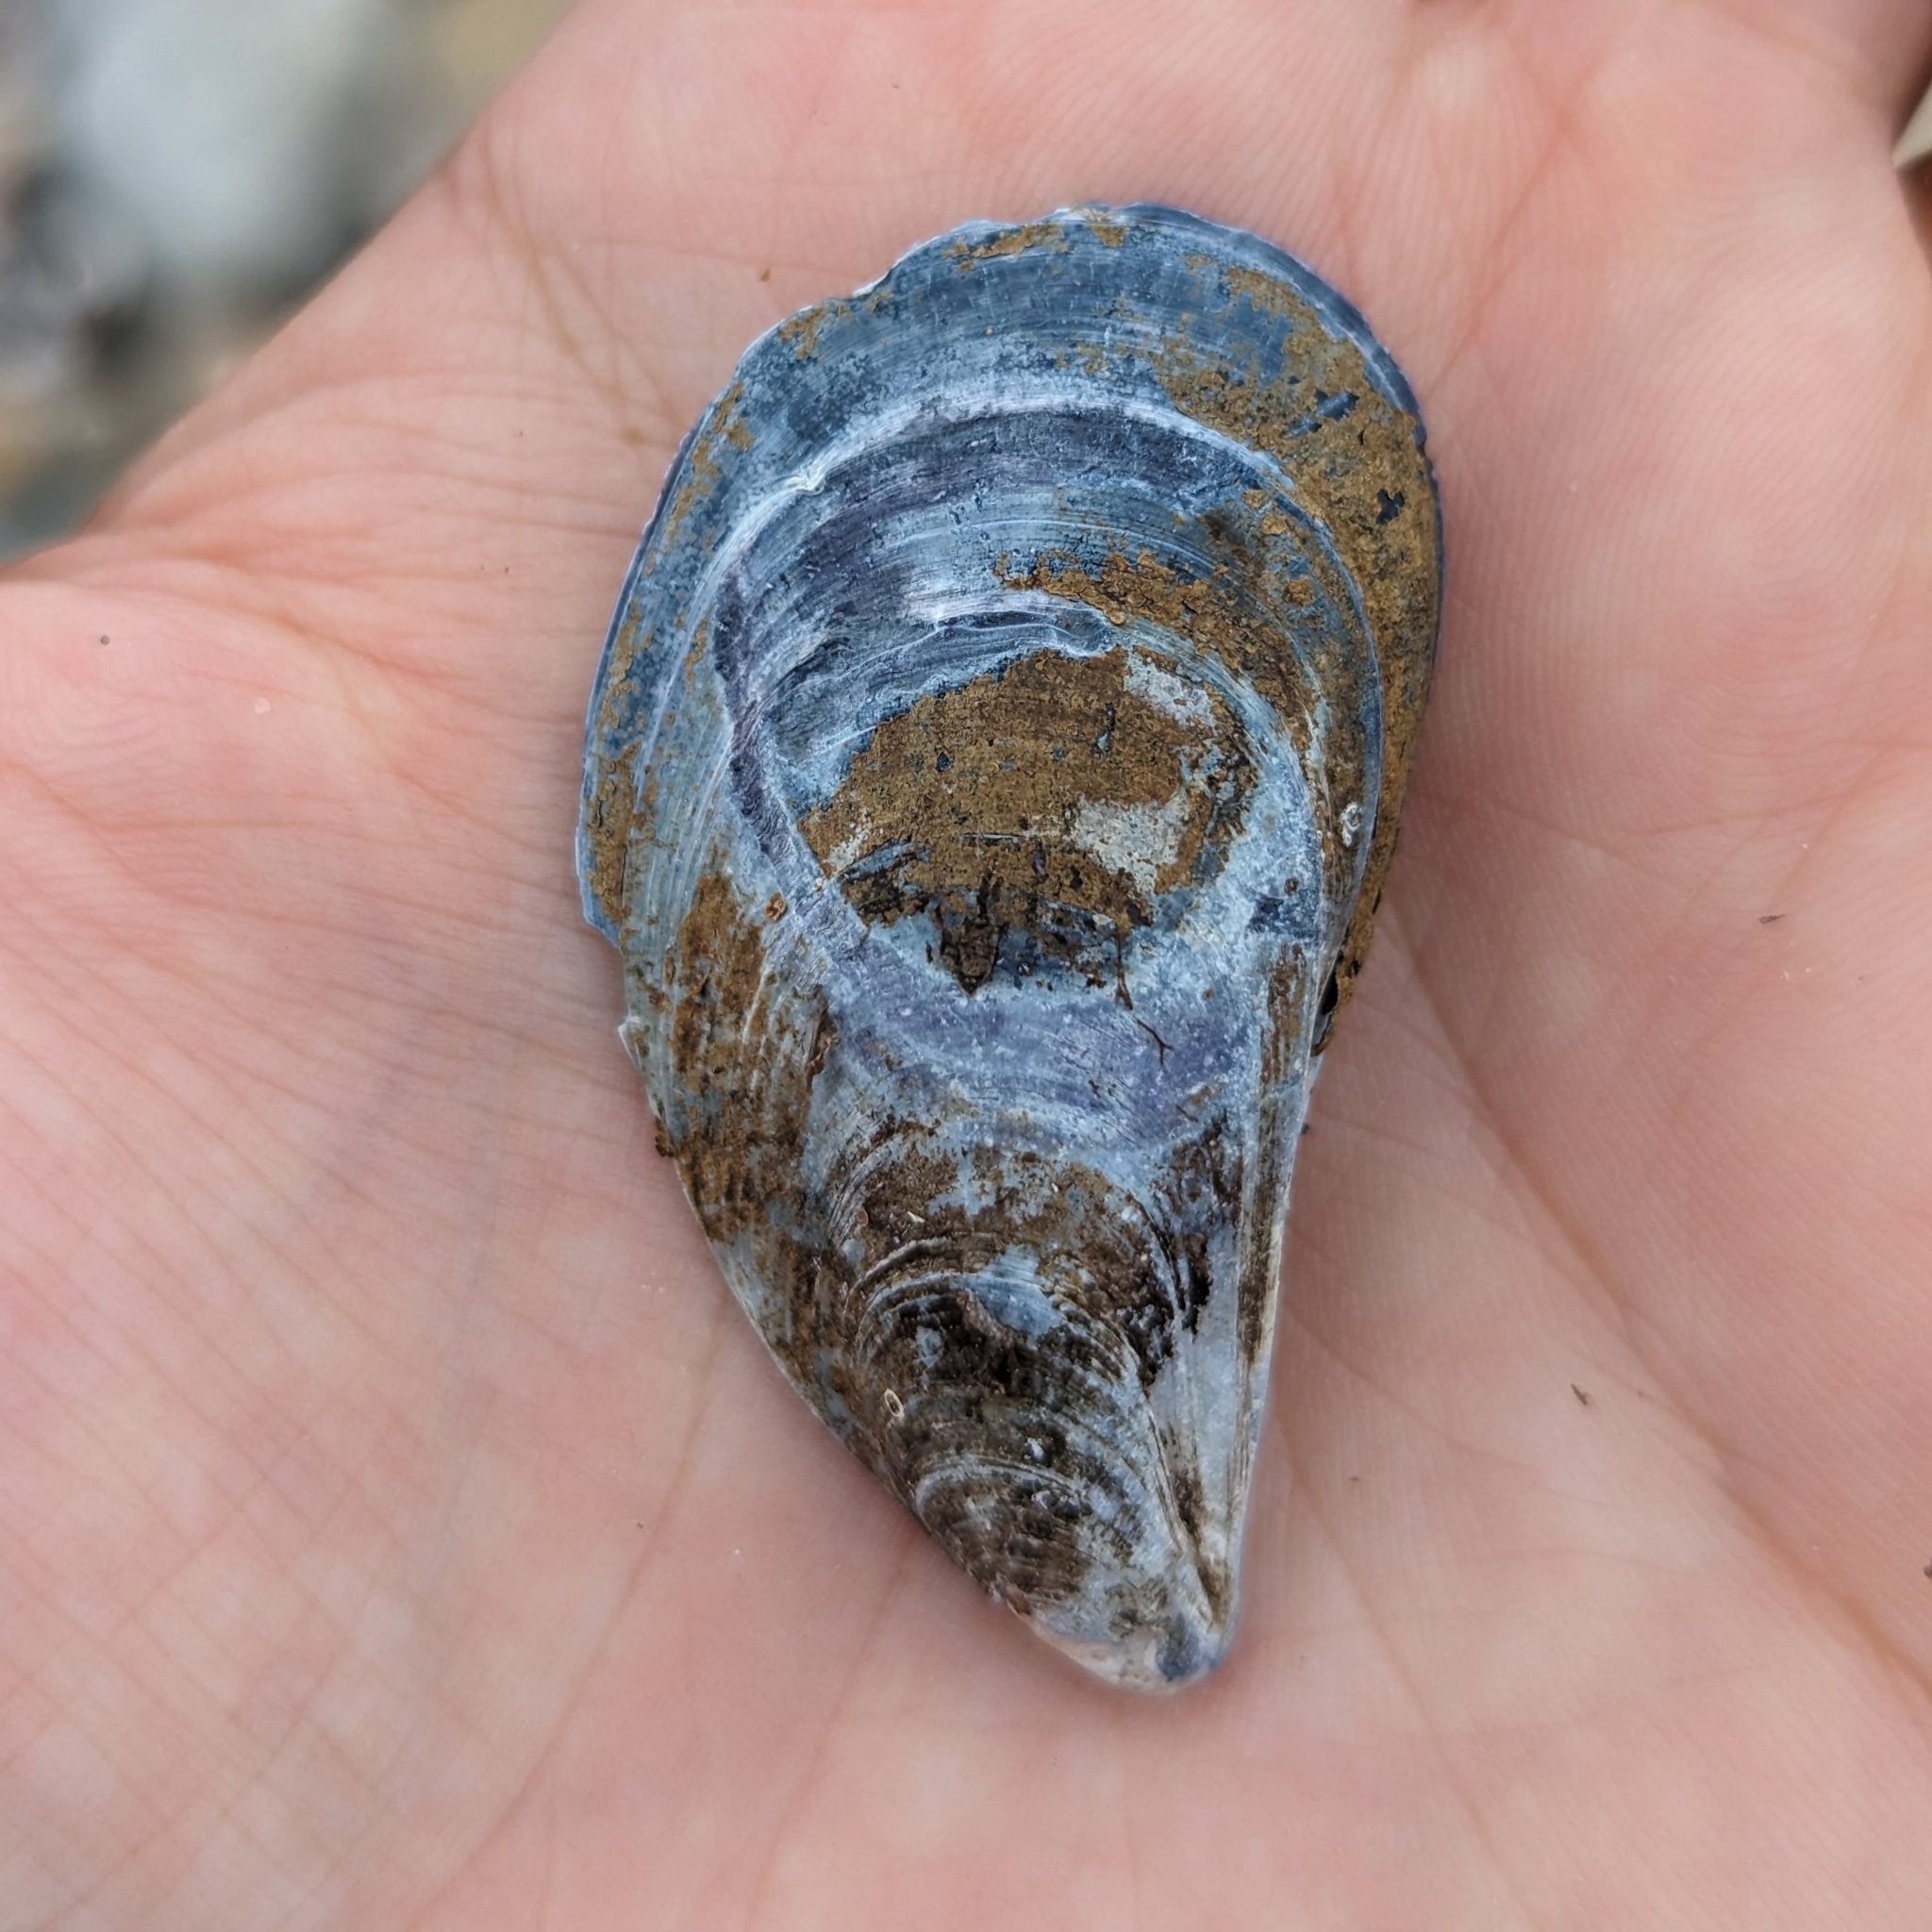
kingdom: Animalia
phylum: Mollusca
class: Bivalvia
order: Mytilida
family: Mytilidae
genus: Mytilus
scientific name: Mytilus edulis
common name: Blue mussel
